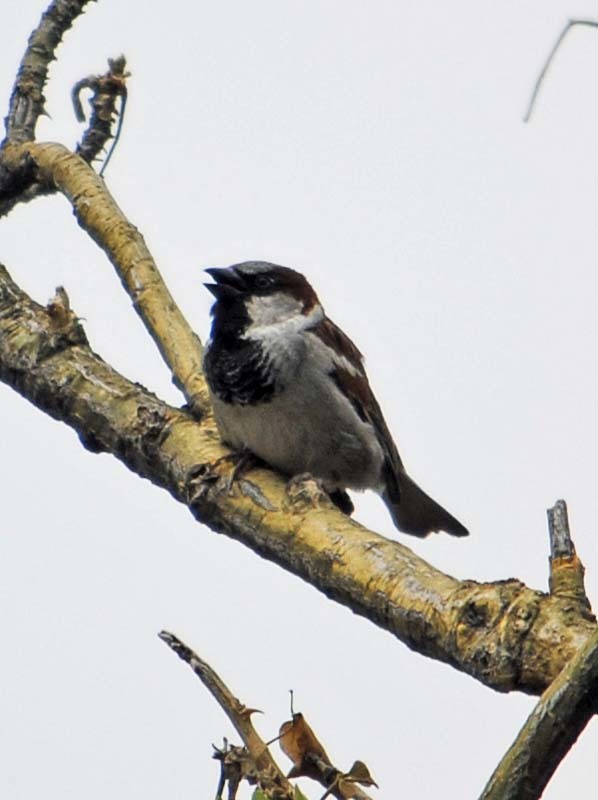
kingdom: Animalia
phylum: Chordata
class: Aves
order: Passeriformes
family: Passeridae
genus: Passer
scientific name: Passer domesticus
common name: House sparrow
